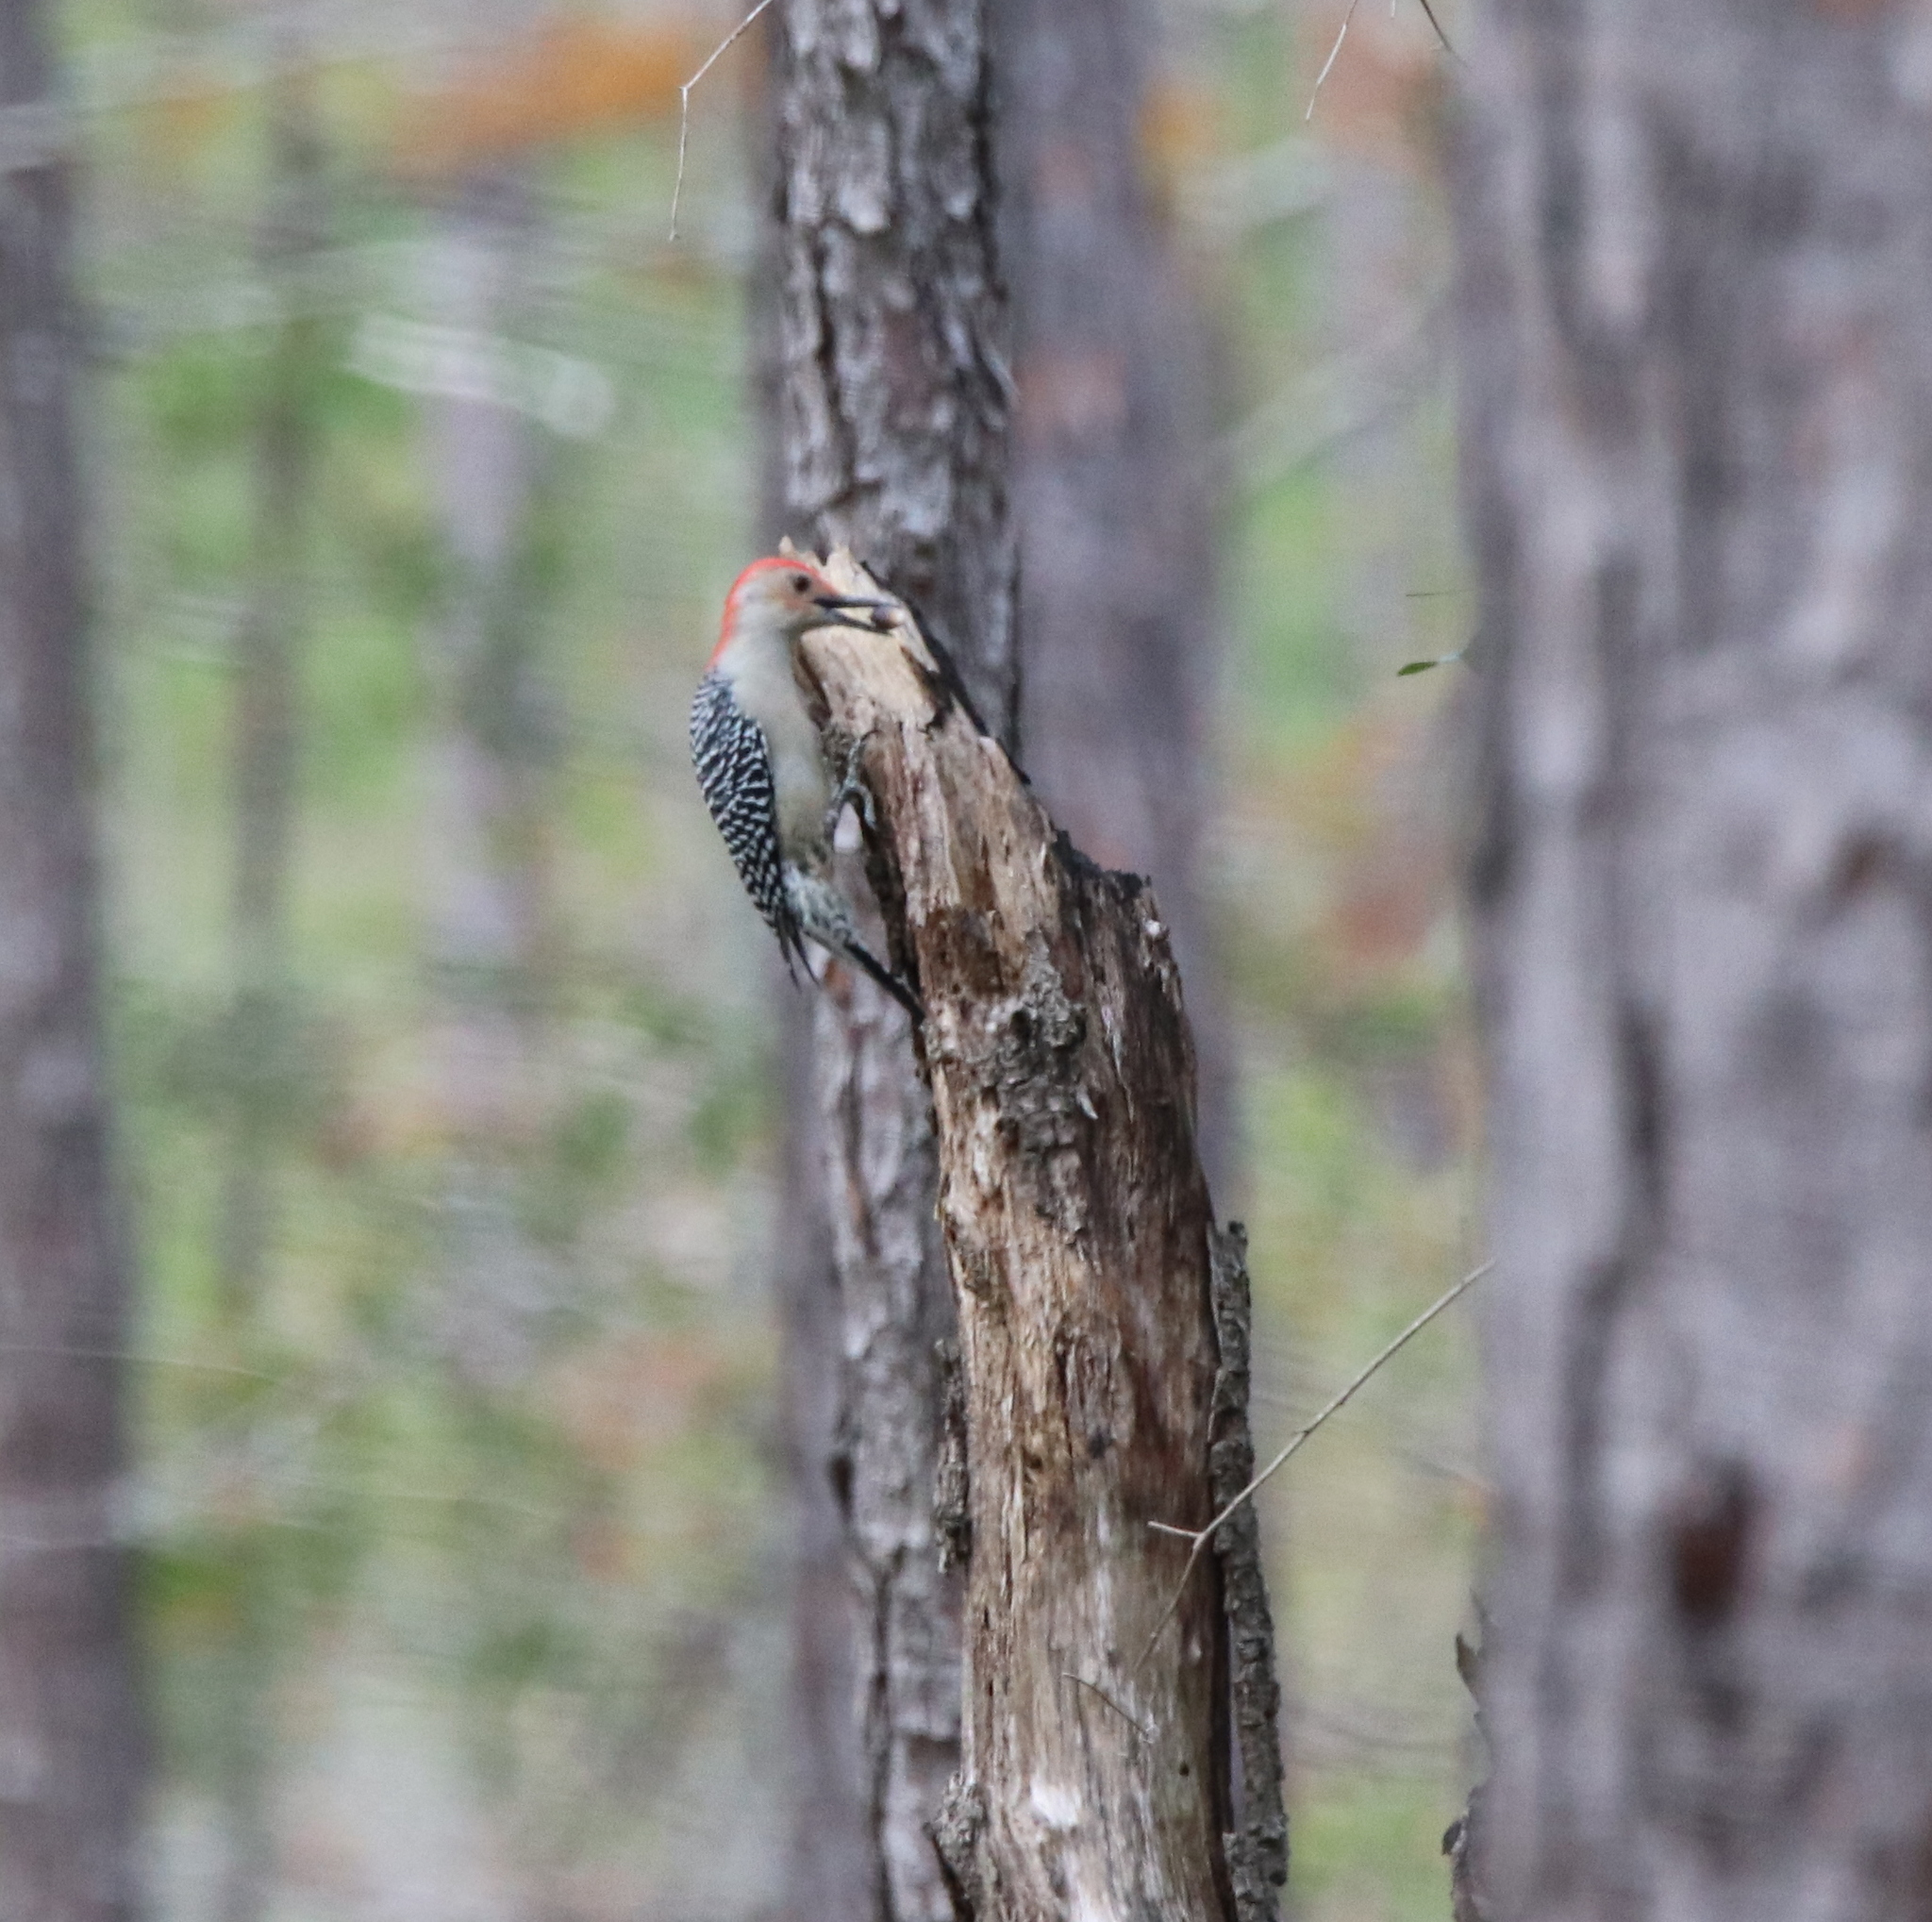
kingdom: Animalia
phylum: Chordata
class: Aves
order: Piciformes
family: Picidae
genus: Melanerpes
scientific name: Melanerpes carolinus
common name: Red-bellied woodpecker
